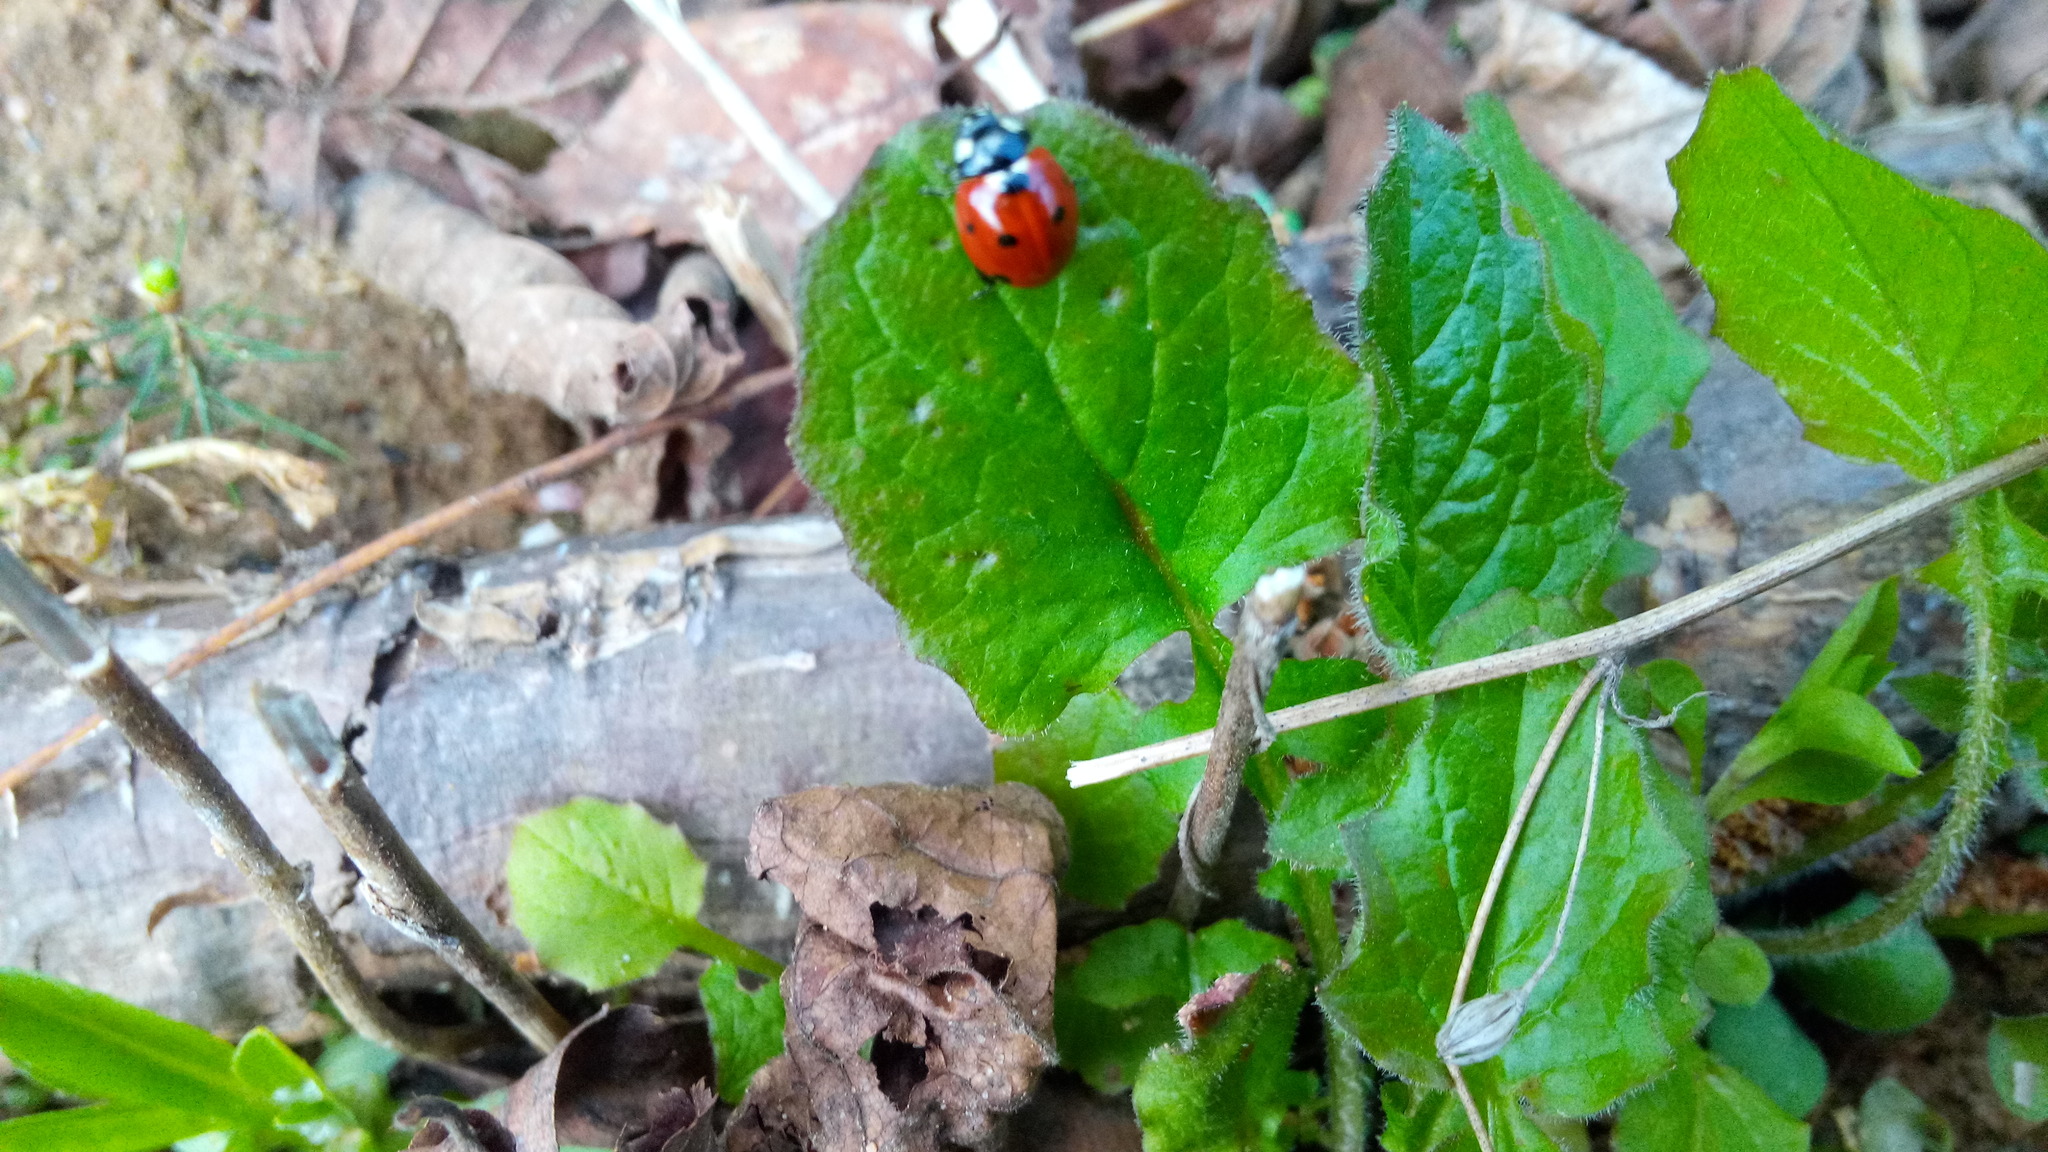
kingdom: Animalia
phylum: Arthropoda
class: Insecta
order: Coleoptera
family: Coccinellidae
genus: Coccinella
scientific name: Coccinella septempunctata
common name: Sevenspotted lady beetle
